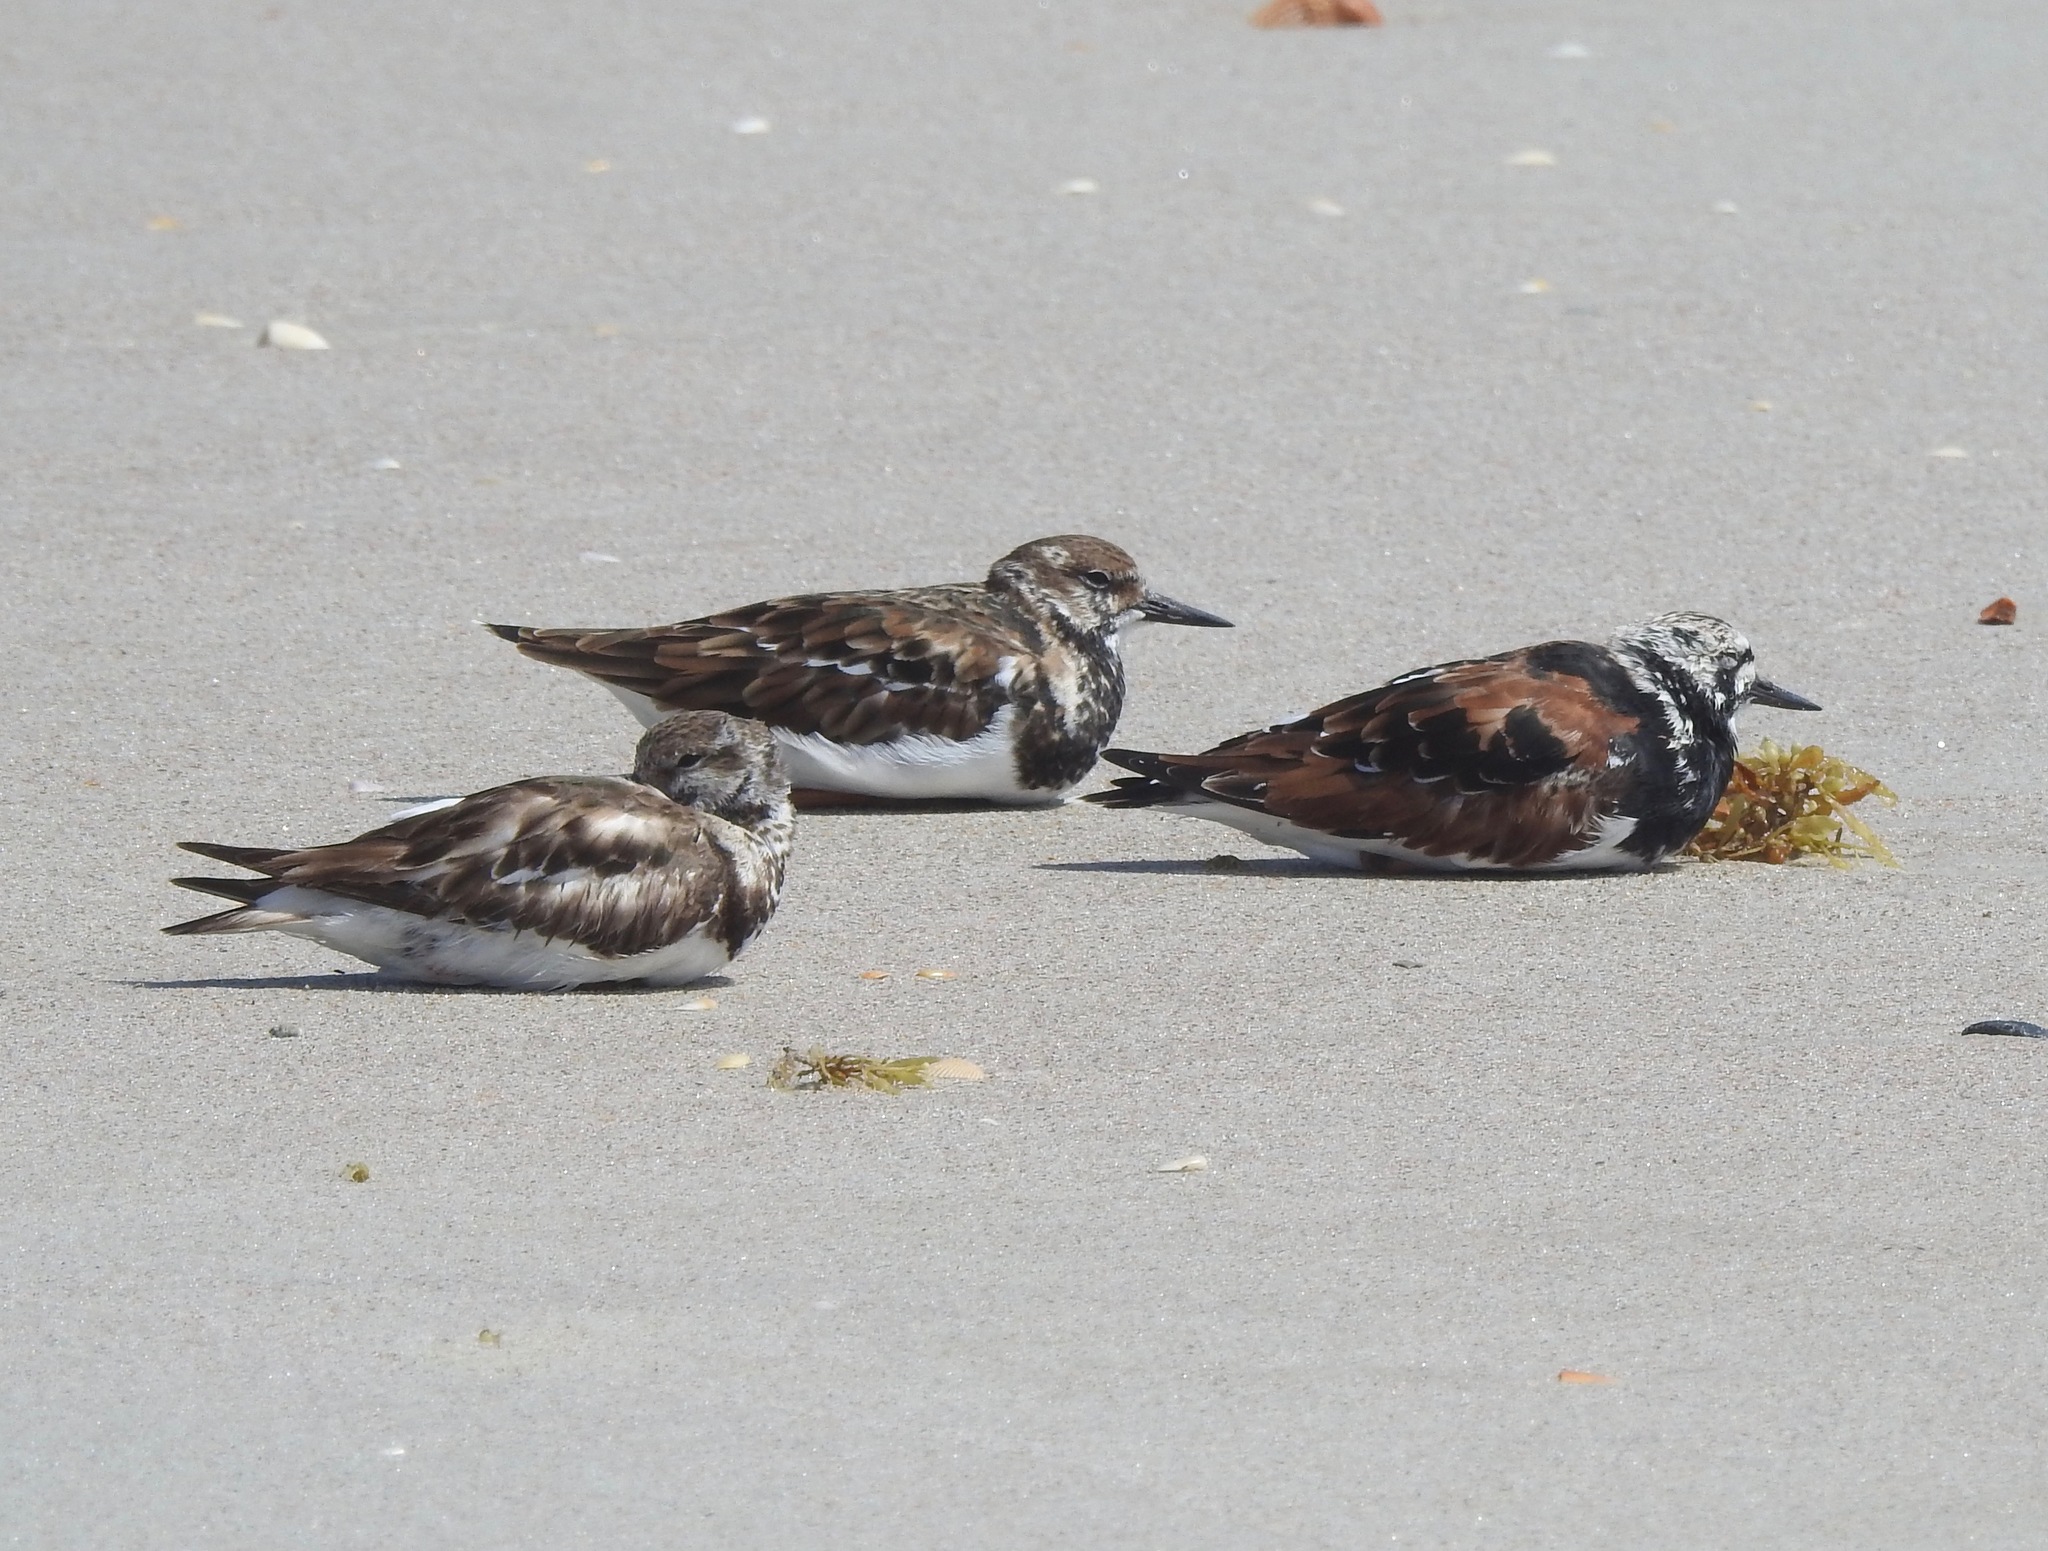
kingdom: Animalia
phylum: Chordata
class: Aves
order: Charadriiformes
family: Scolopacidae
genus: Arenaria
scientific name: Arenaria interpres
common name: Ruddy turnstone
